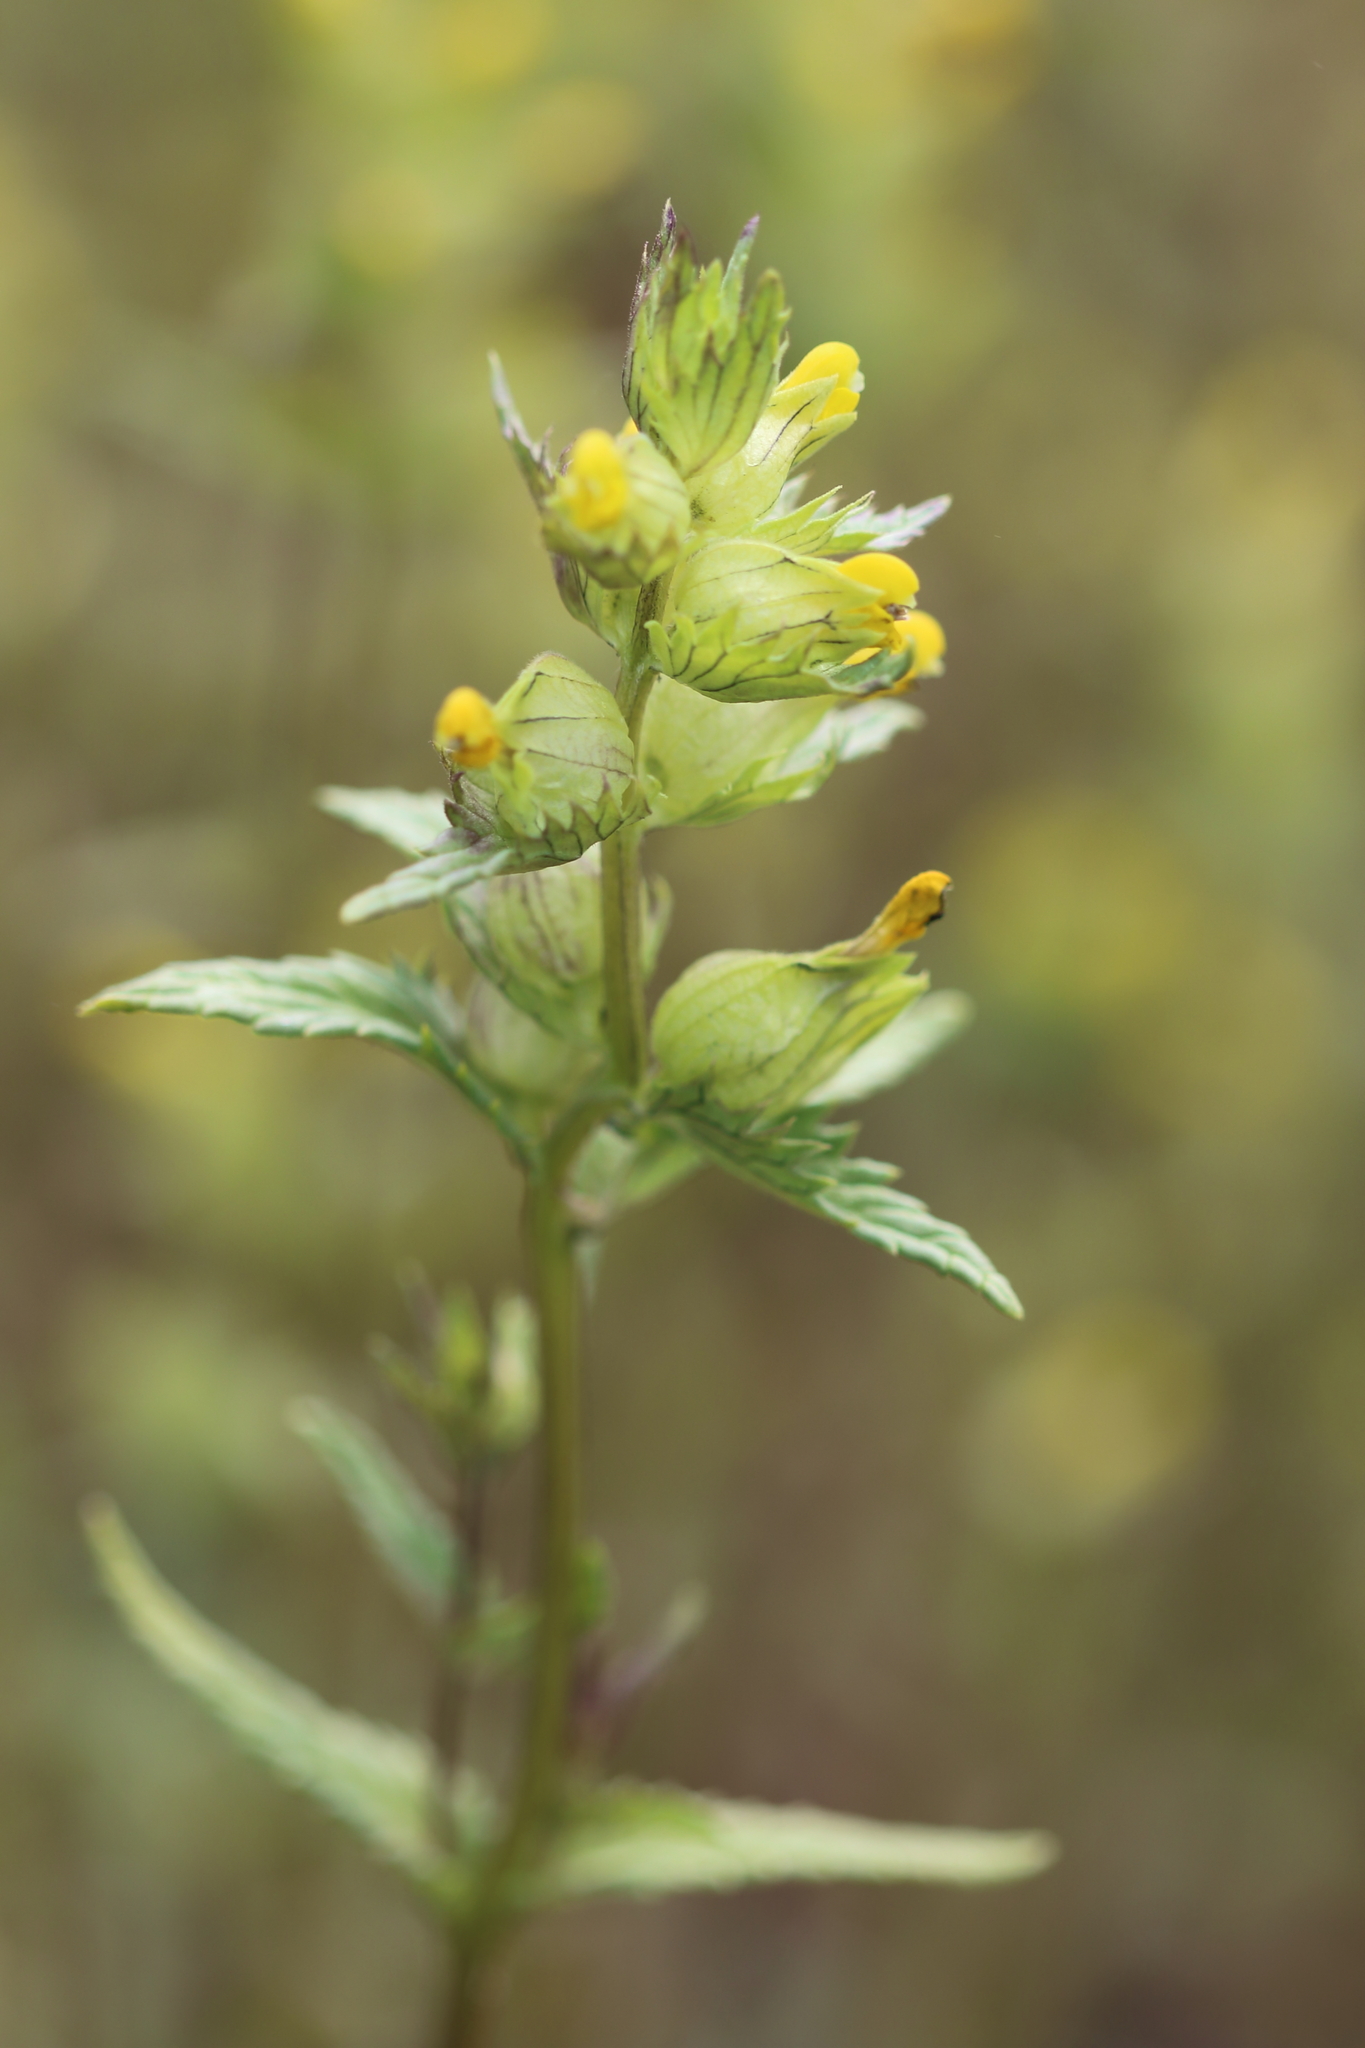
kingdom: Plantae
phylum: Tracheophyta
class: Magnoliopsida
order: Lamiales
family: Orobanchaceae
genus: Rhinanthus
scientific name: Rhinanthus groenlandicus
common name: Little yellow rattle
